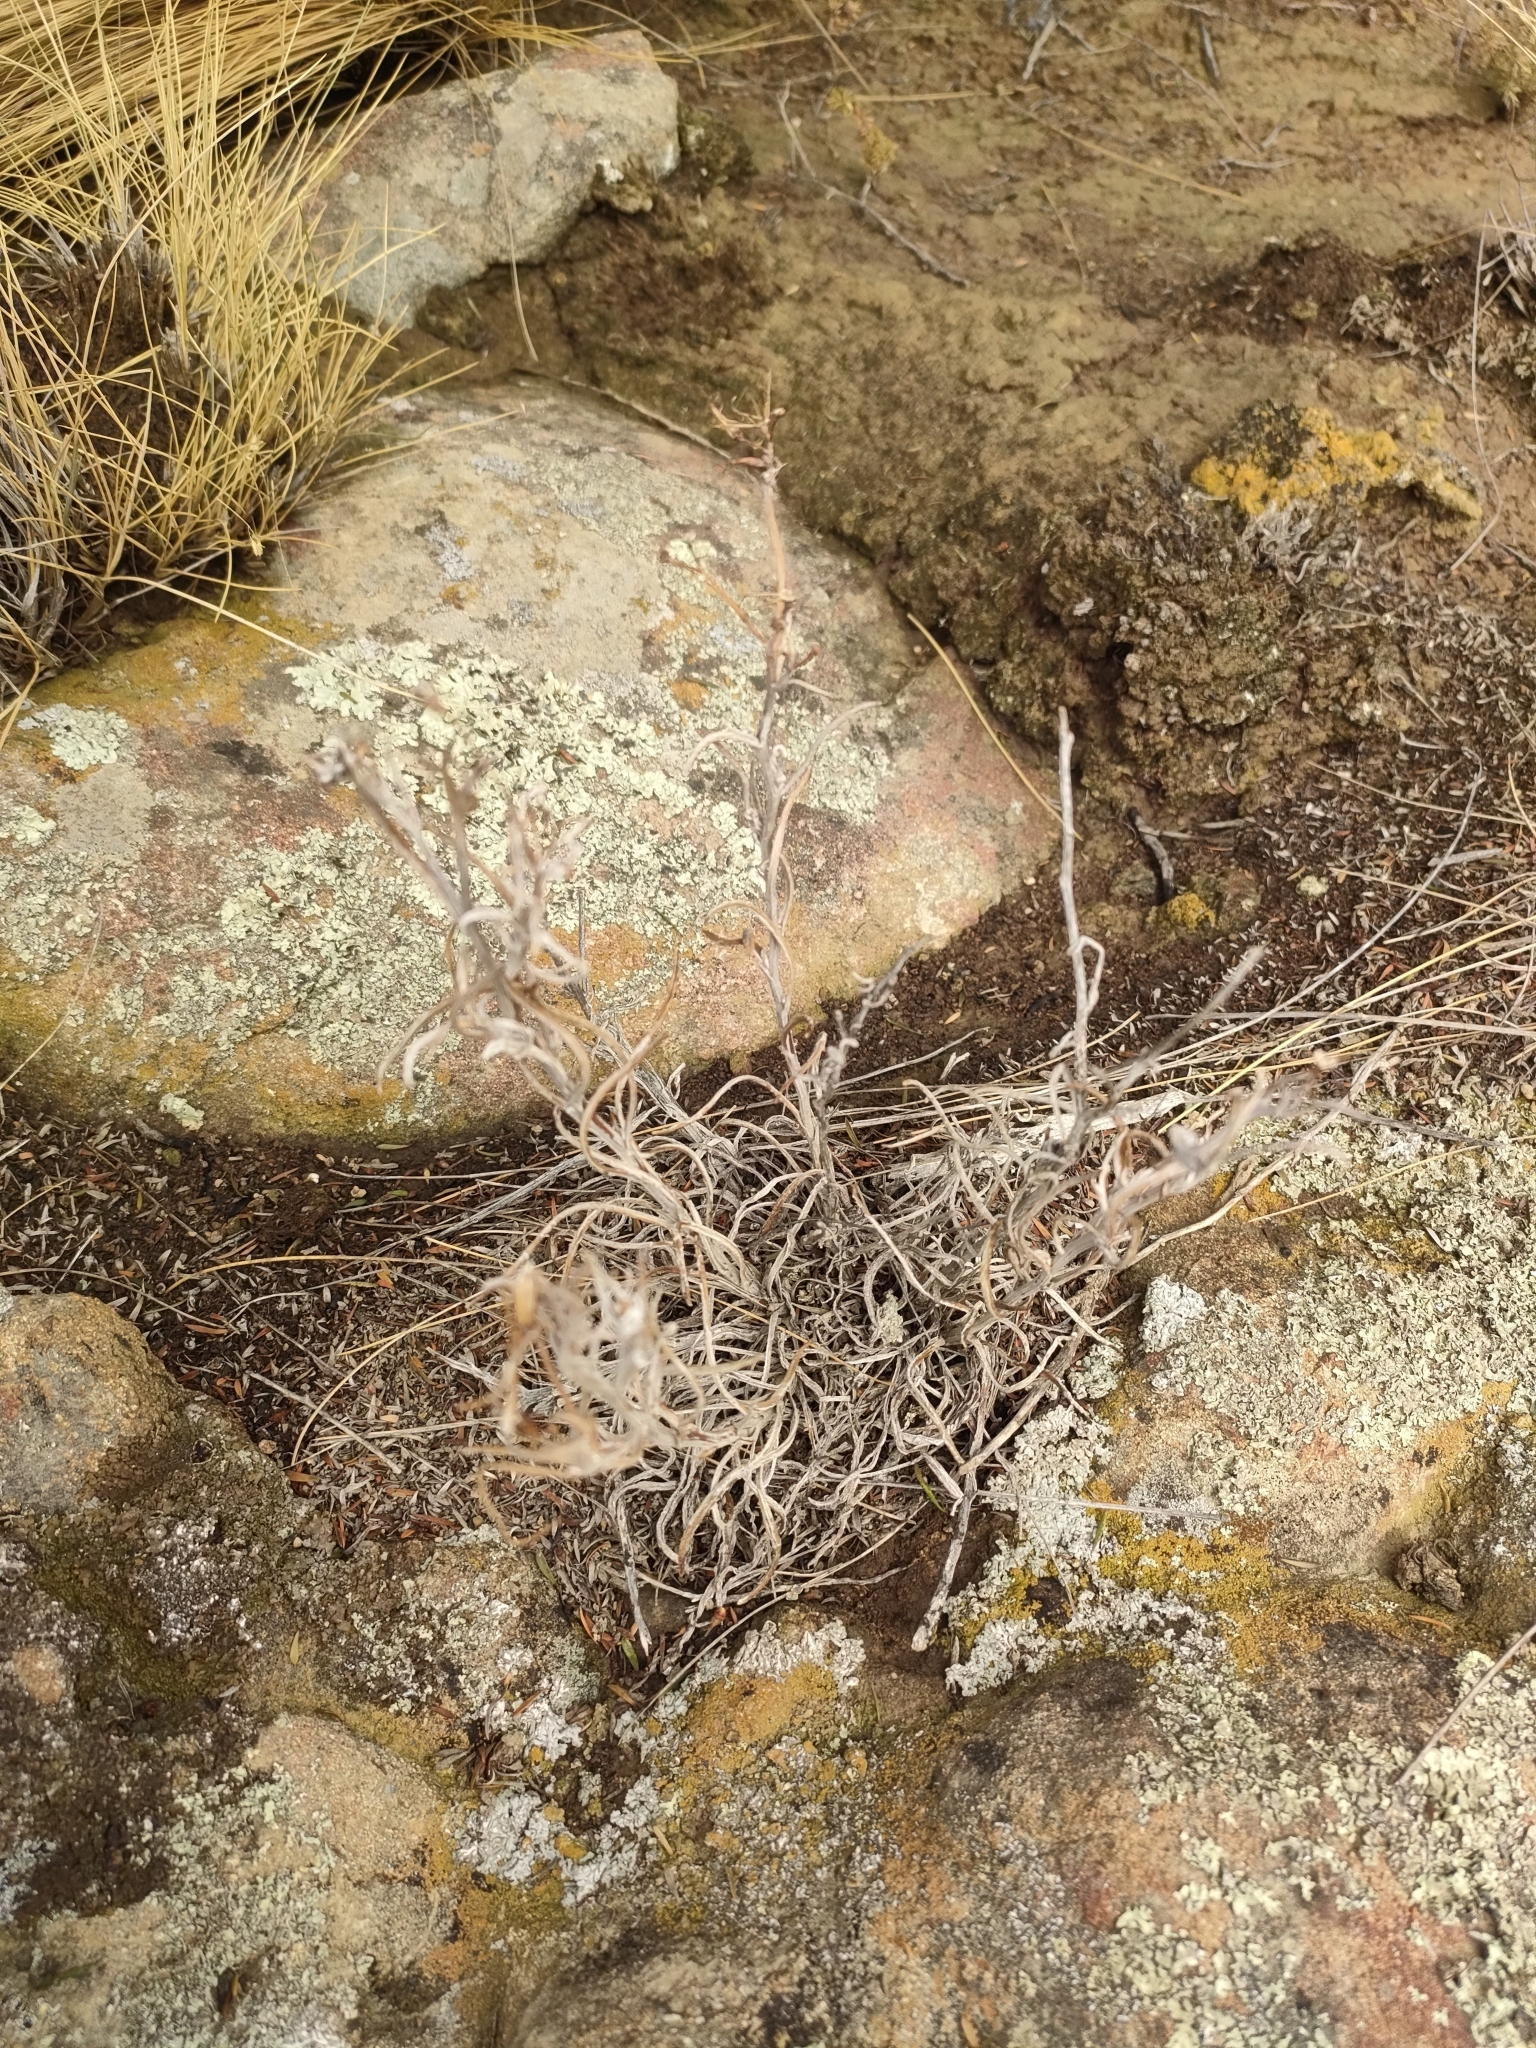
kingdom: Plantae
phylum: Tracheophyta
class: Magnoliopsida
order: Asterales
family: Asteraceae
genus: Senecio
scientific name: Senecio quadridentatus
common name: Cotton fireweed
